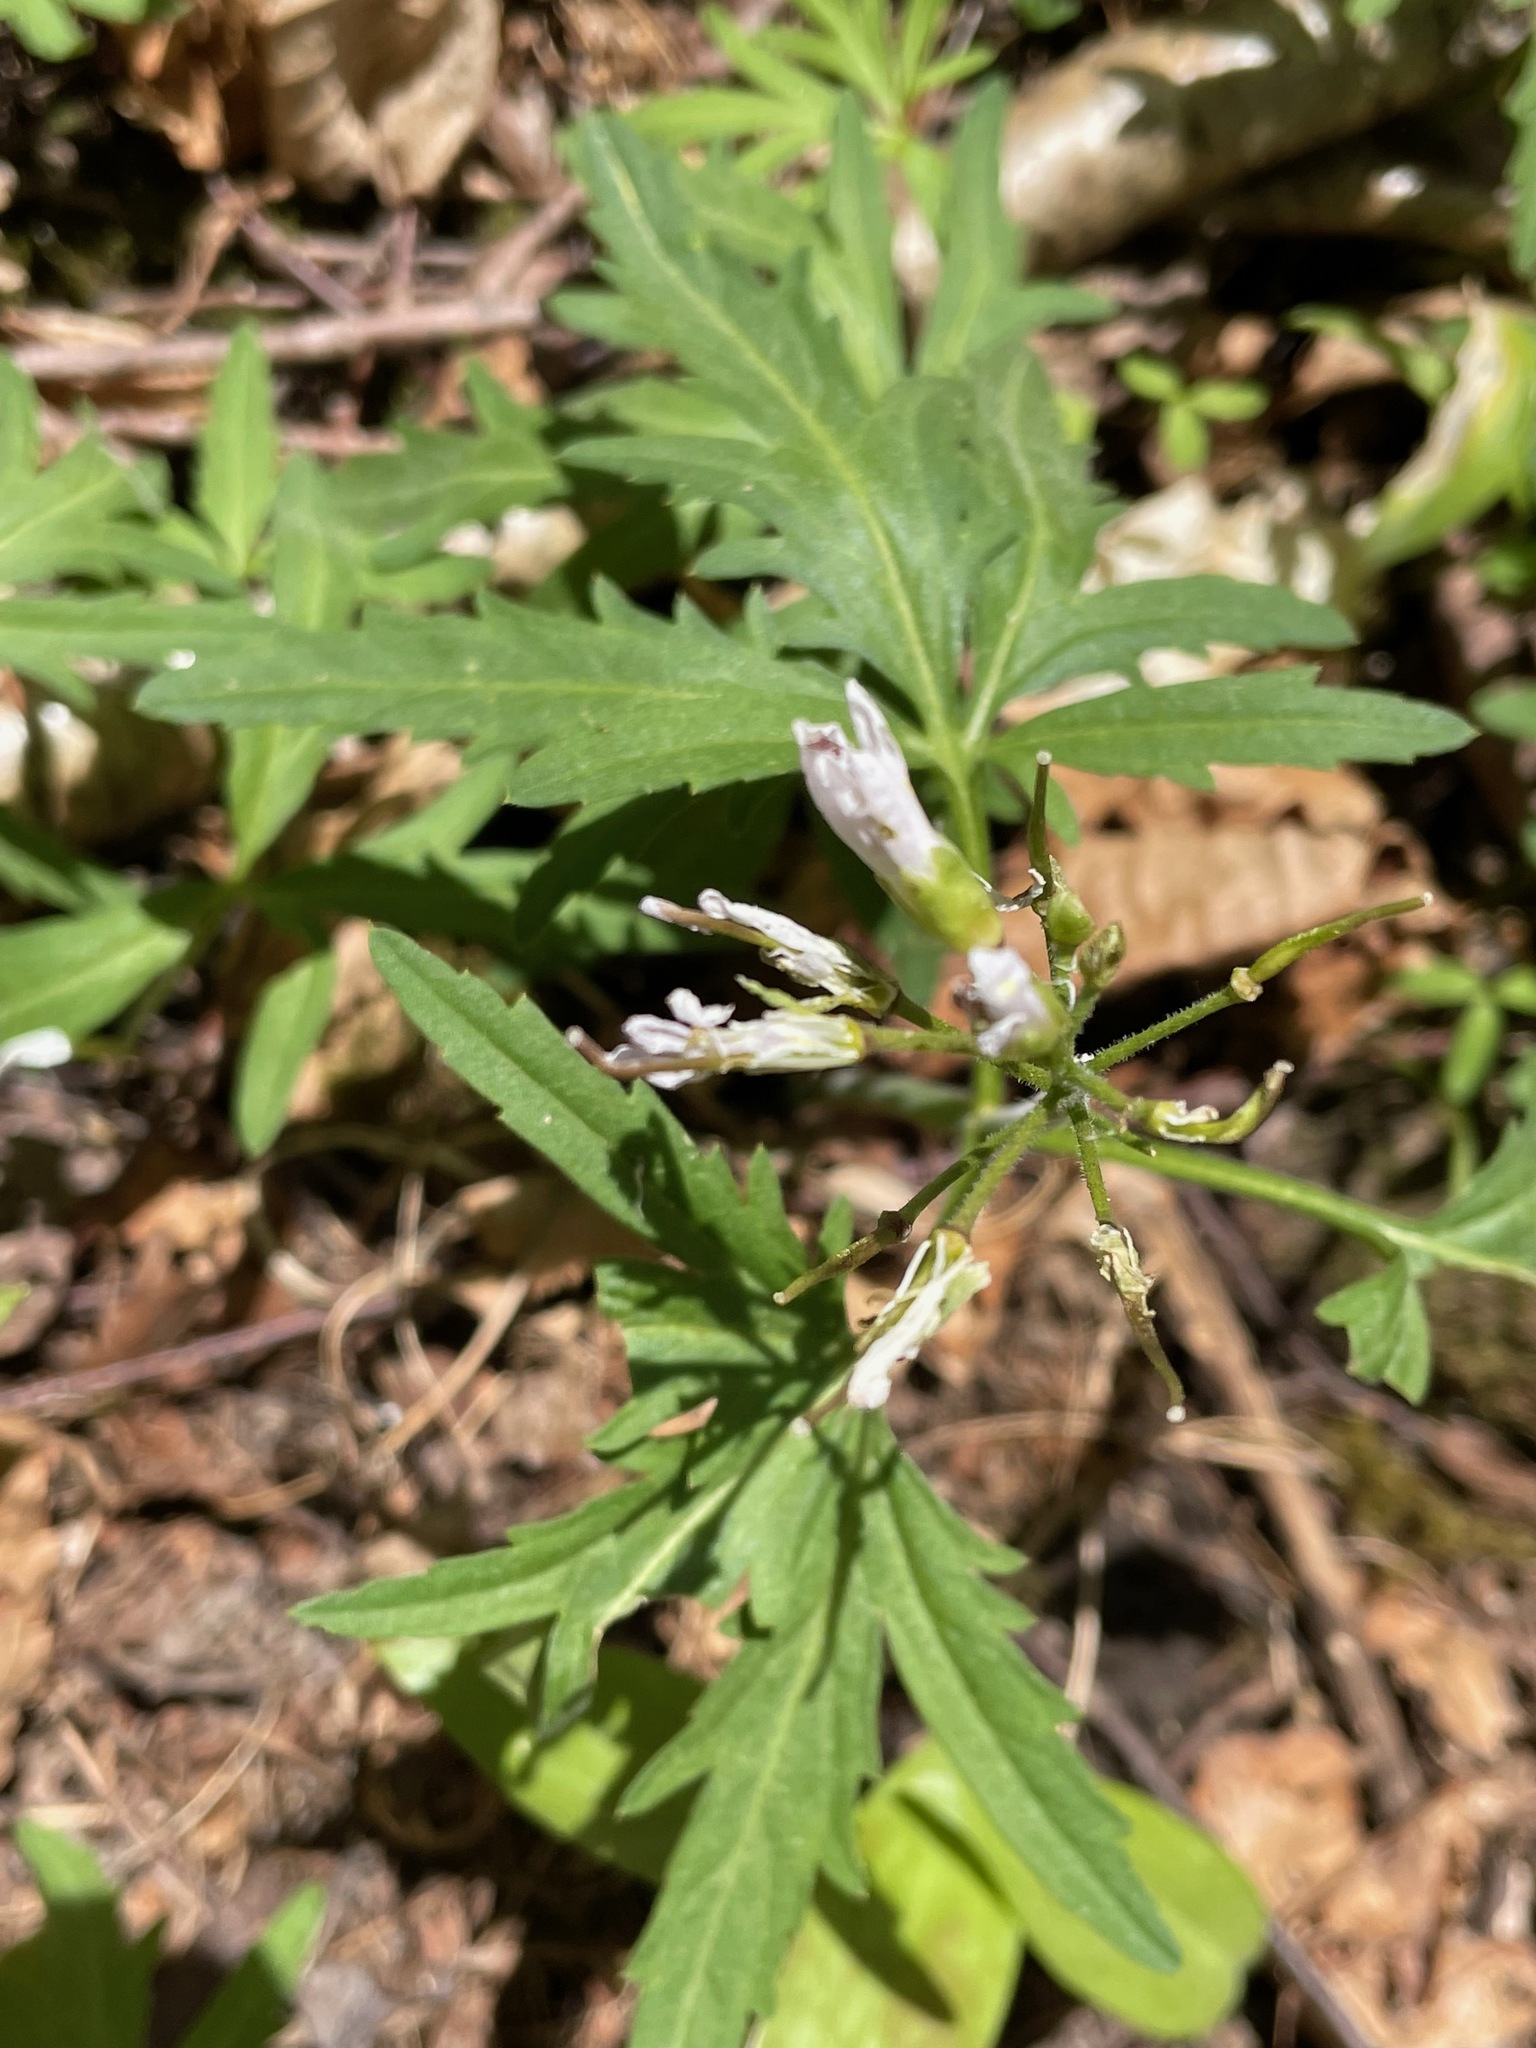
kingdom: Plantae
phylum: Tracheophyta
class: Magnoliopsida
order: Brassicales
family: Brassicaceae
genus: Cardamine
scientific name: Cardamine concatenata
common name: Cut-leaf toothcup
